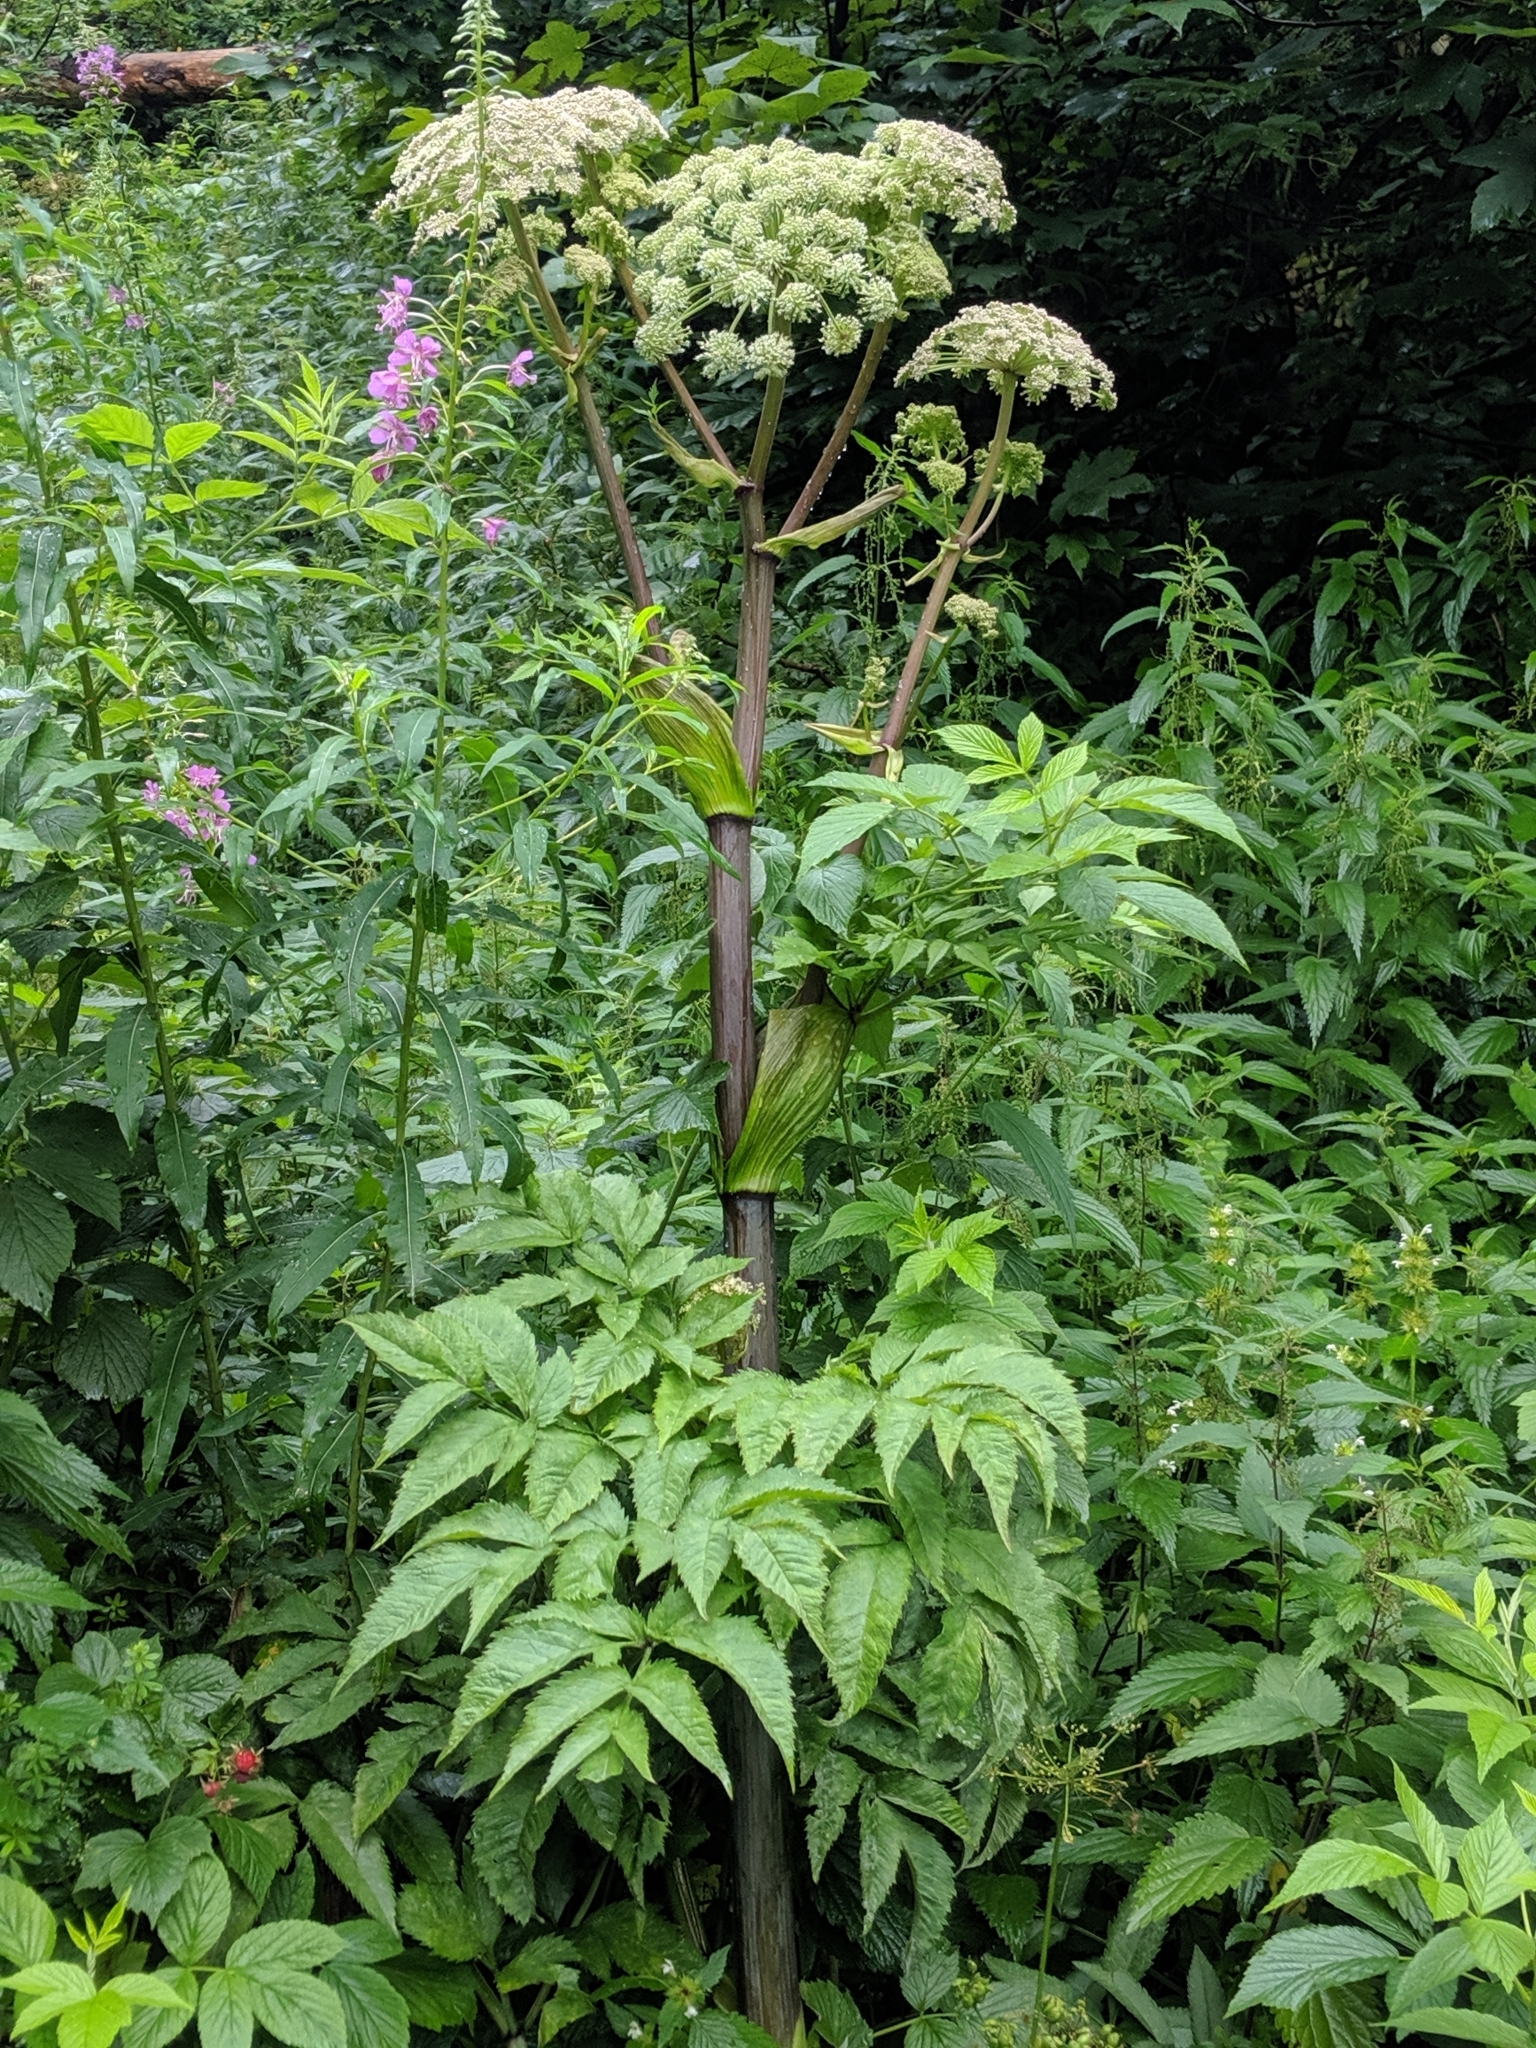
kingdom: Plantae
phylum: Tracheophyta
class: Magnoliopsida
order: Apiales
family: Apiaceae
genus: Angelica
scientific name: Angelica sylvestris
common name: Wild angelica
